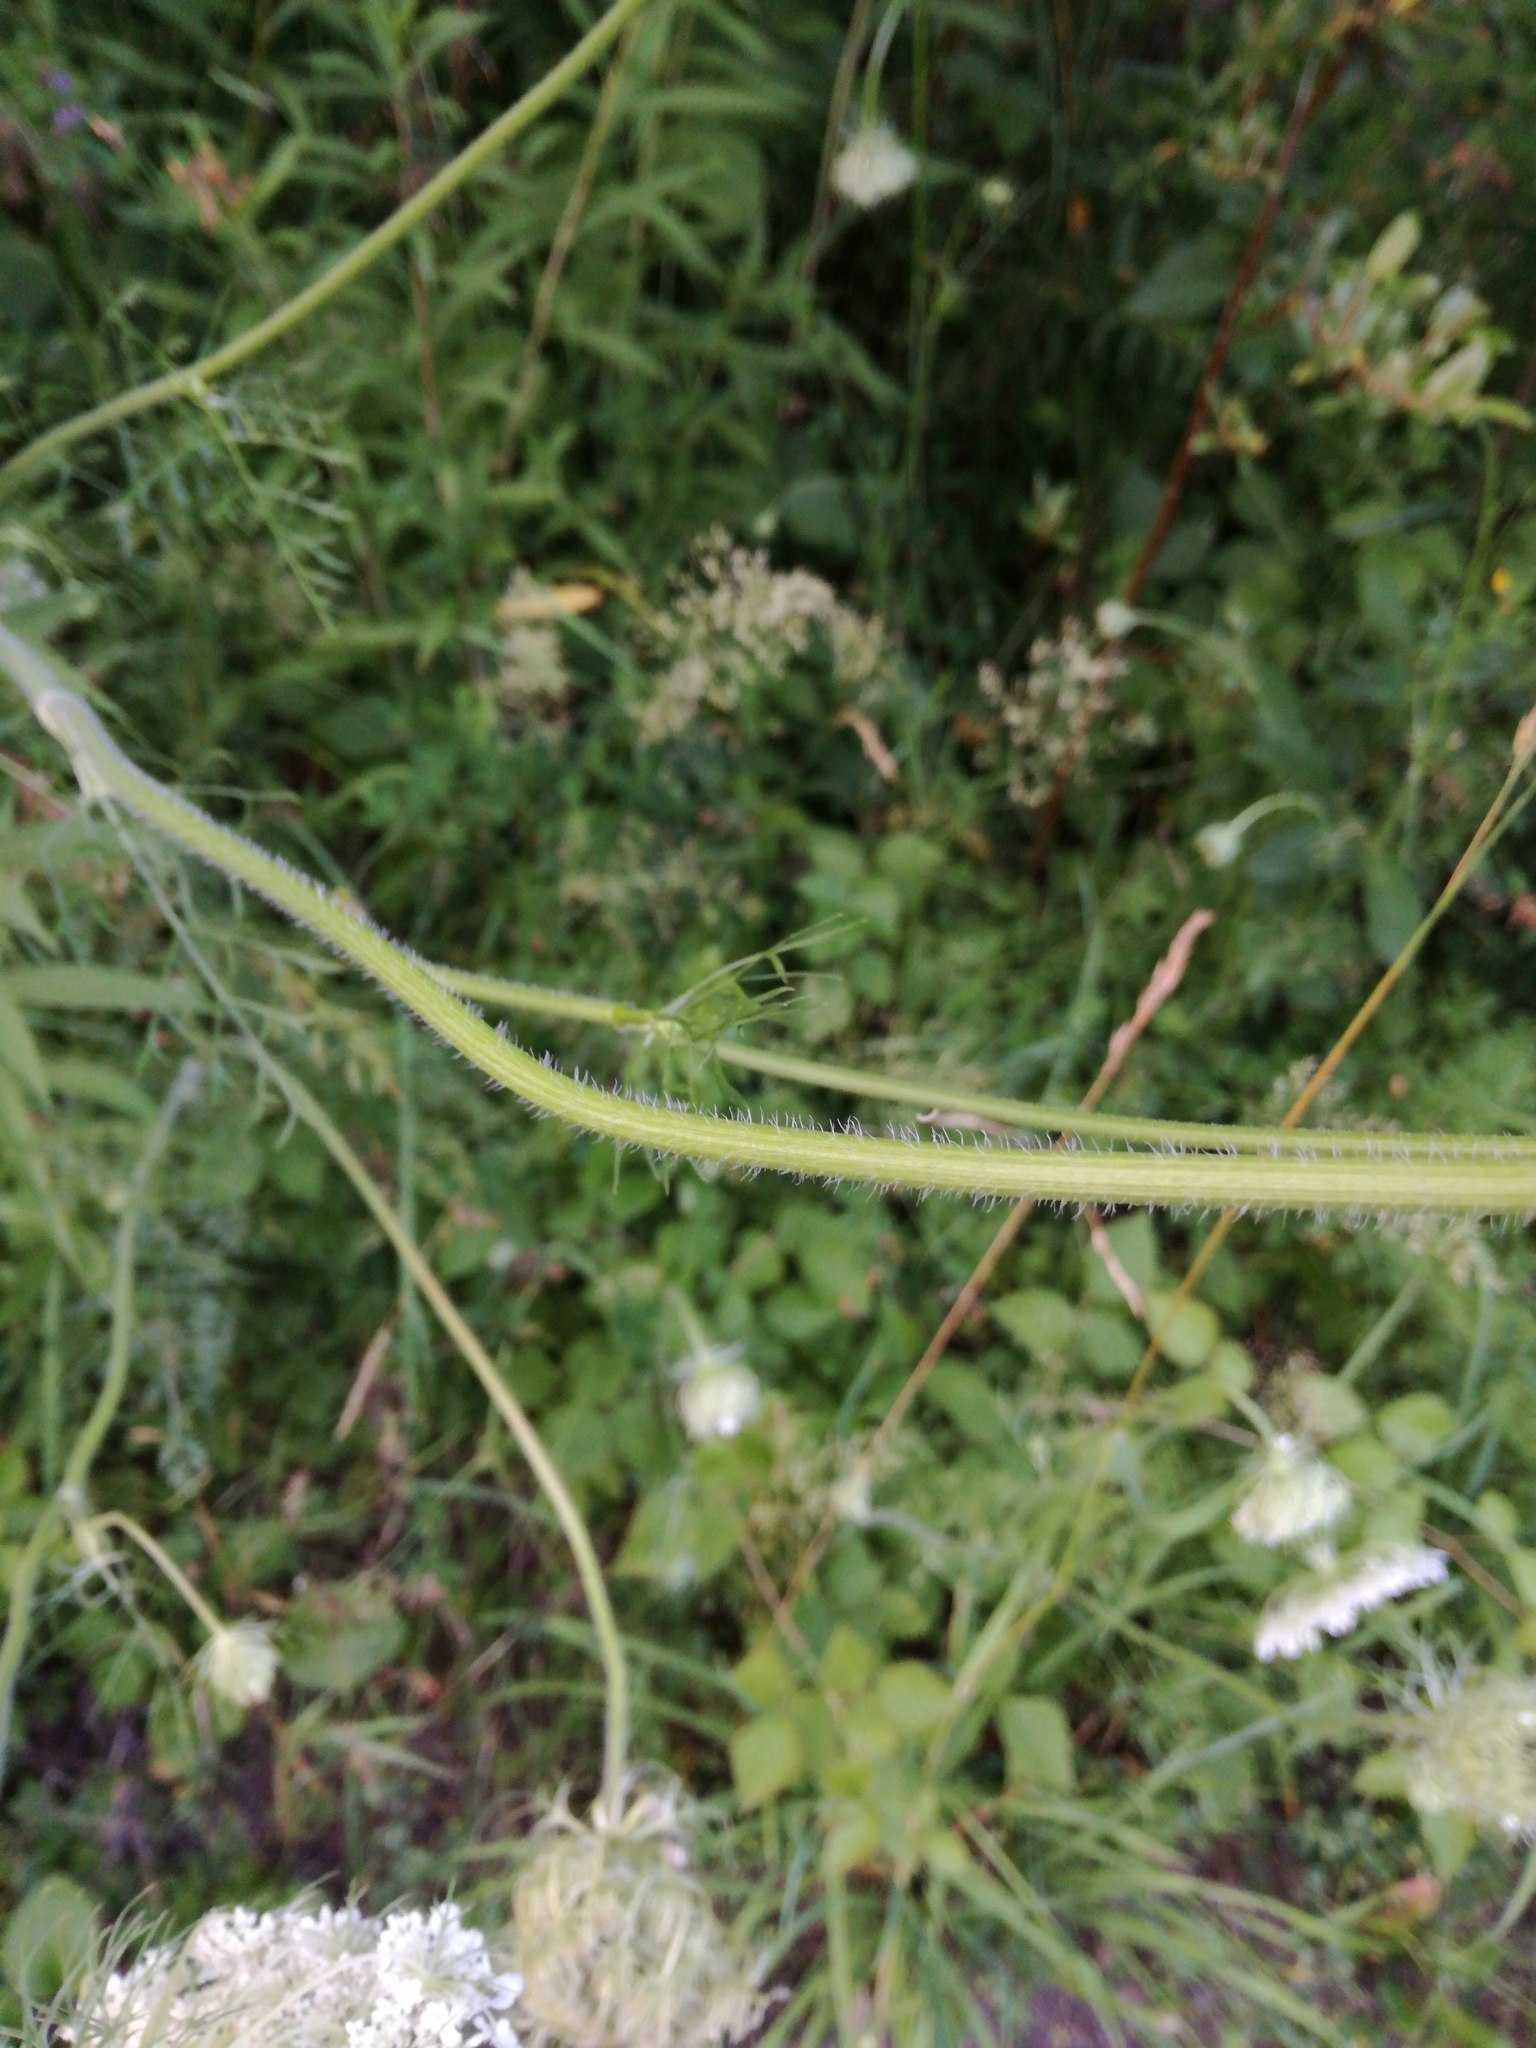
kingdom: Plantae
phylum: Tracheophyta
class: Magnoliopsida
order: Apiales
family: Apiaceae
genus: Daucus
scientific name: Daucus carota
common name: Wild carrot
